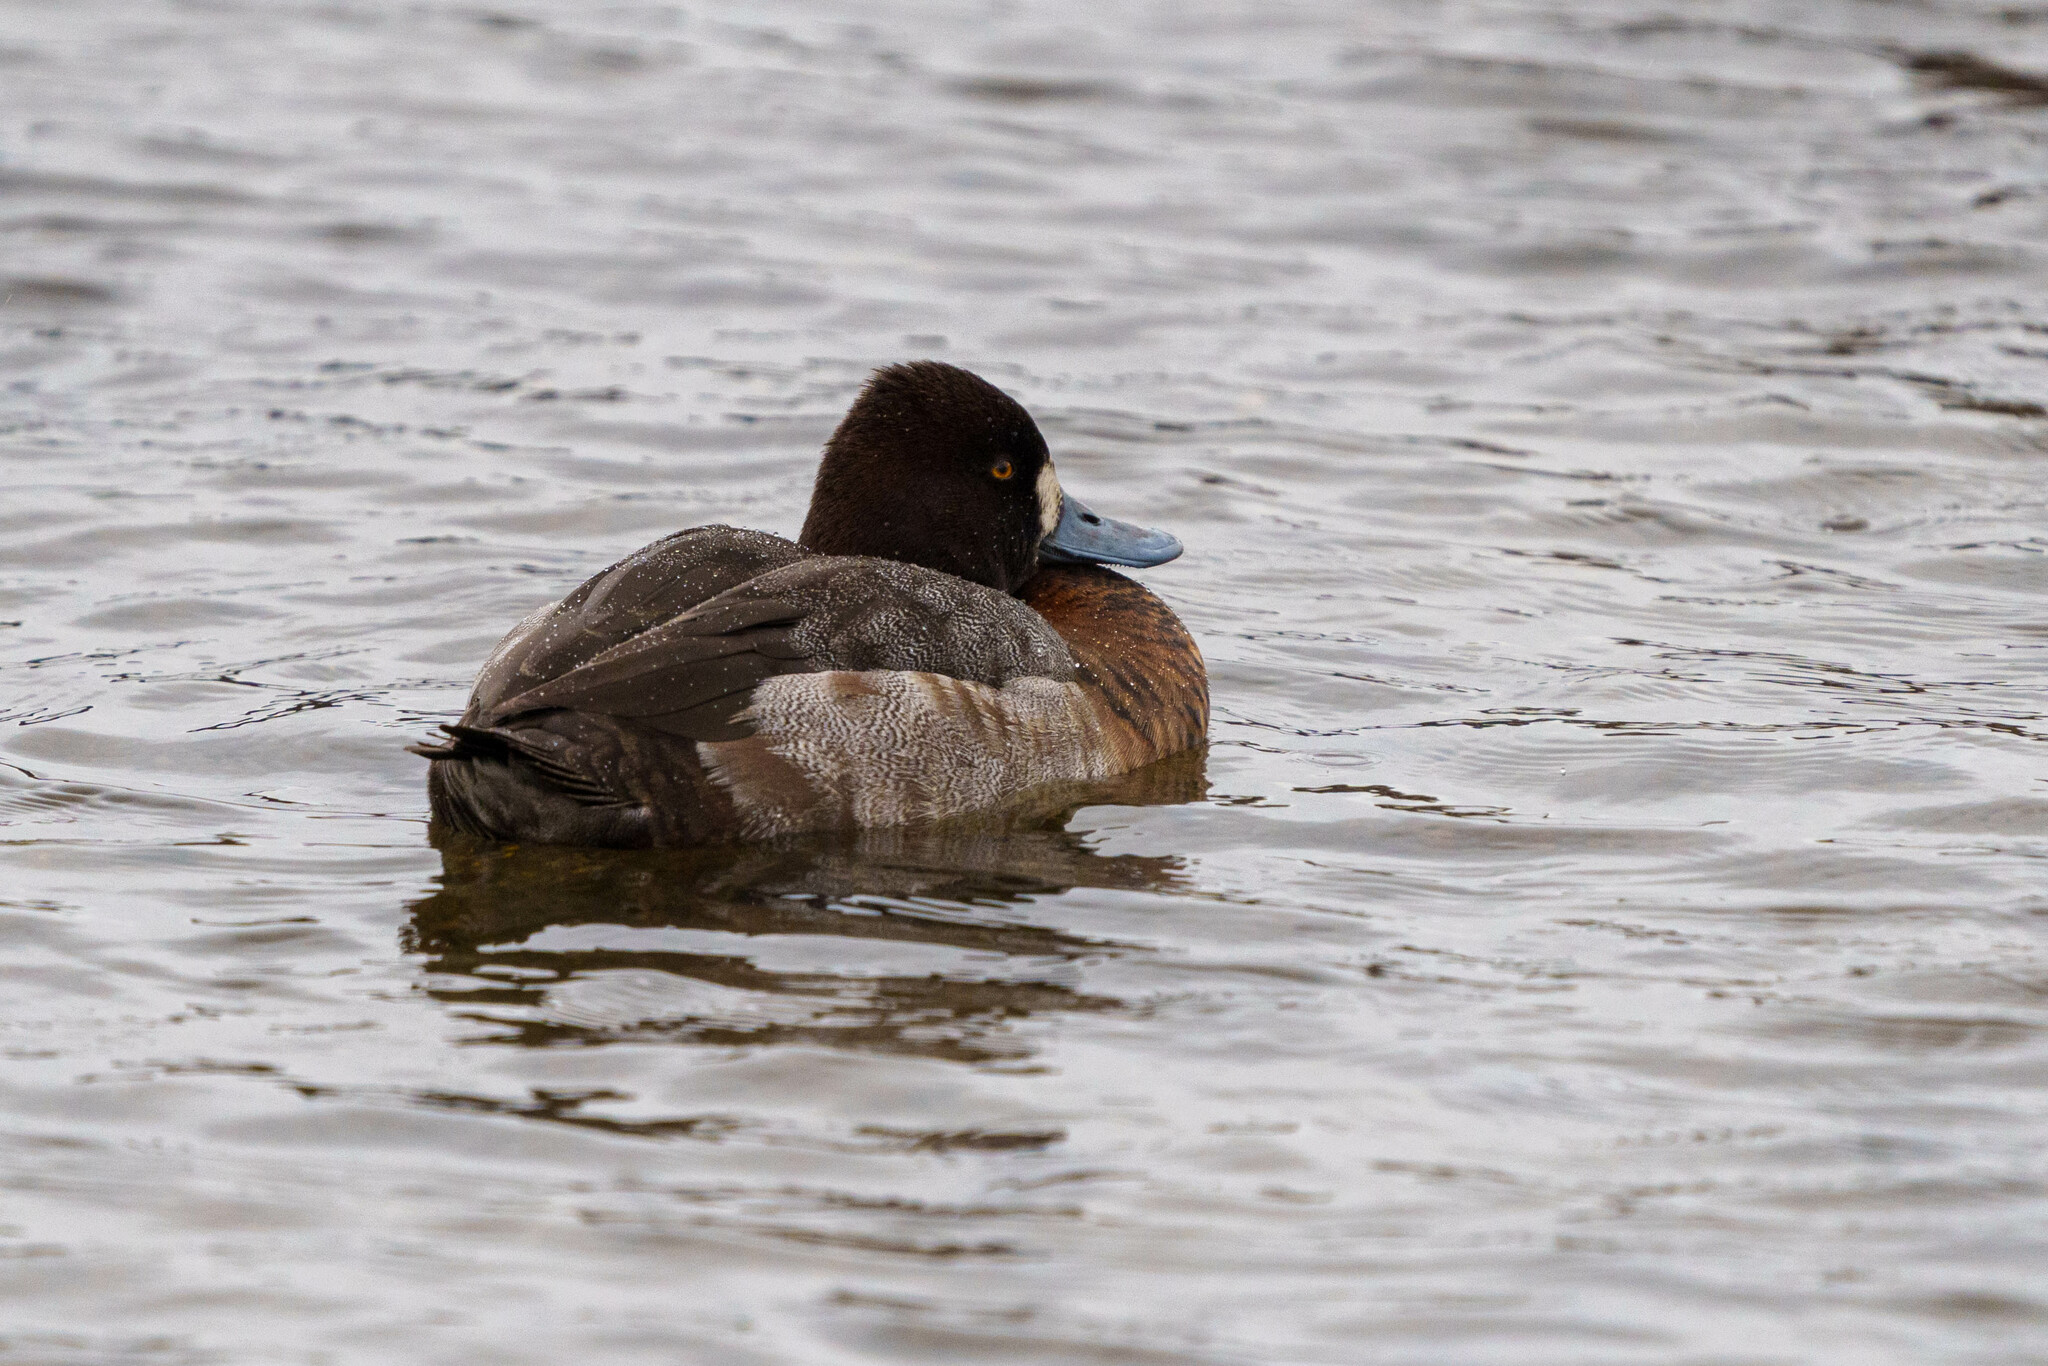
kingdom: Animalia
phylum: Chordata
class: Aves
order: Anseriformes
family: Anatidae
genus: Aythya
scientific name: Aythya affinis
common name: Lesser scaup
